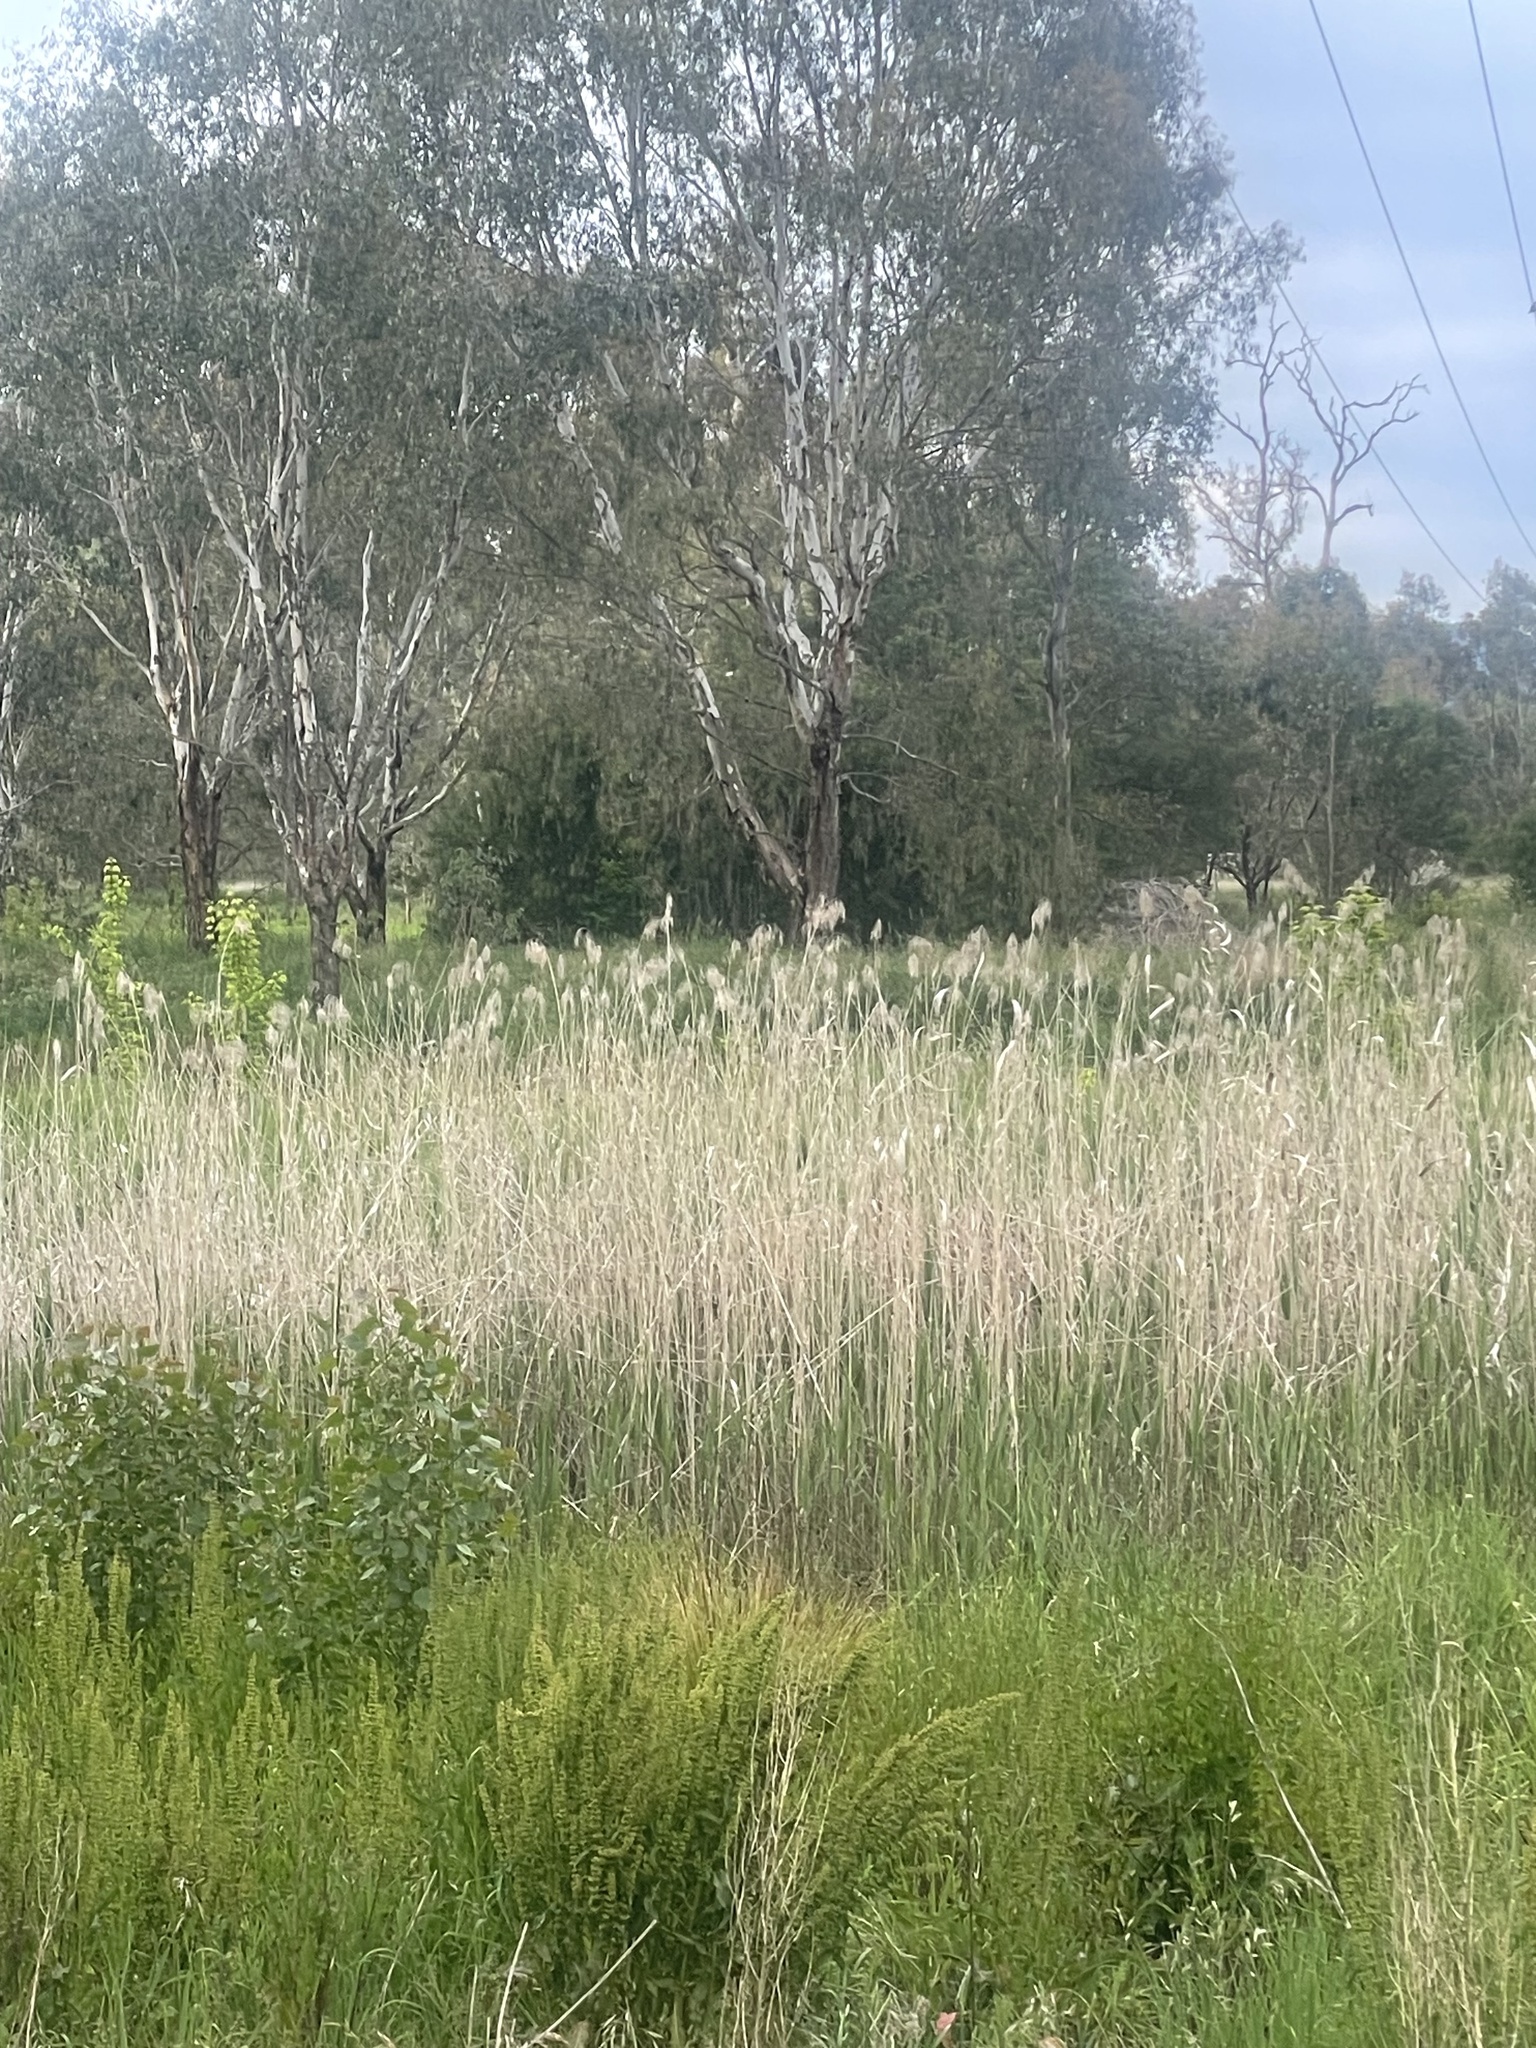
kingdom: Plantae
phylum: Tracheophyta
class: Liliopsida
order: Poales
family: Poaceae
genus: Phragmites
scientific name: Phragmites australis
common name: Common reed
